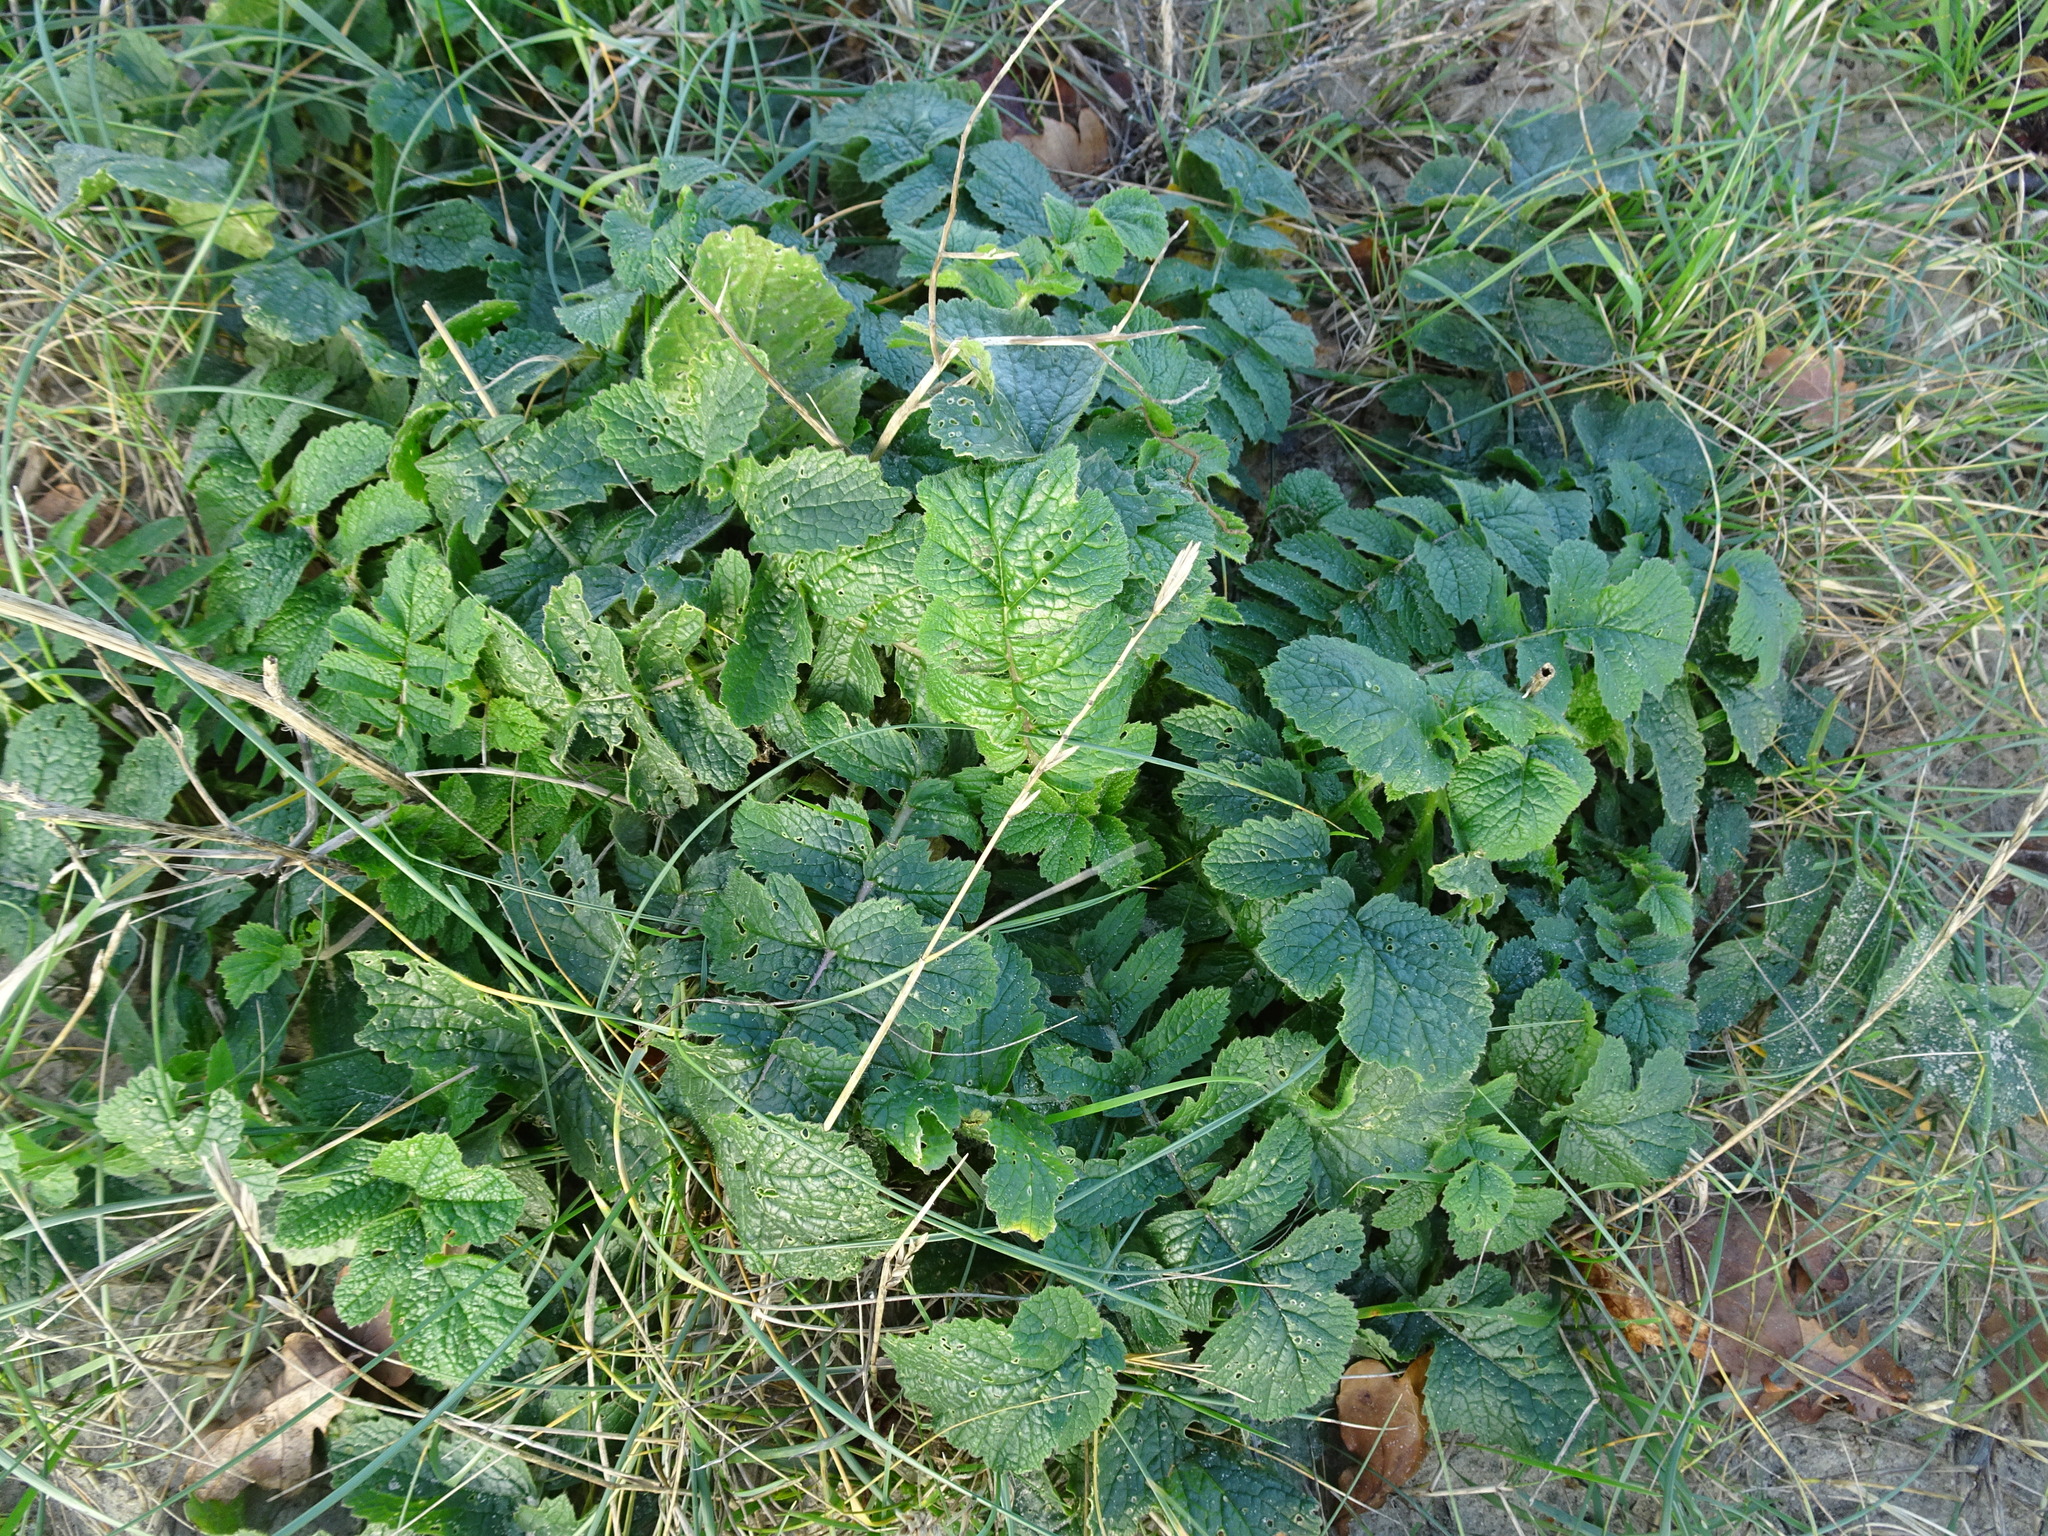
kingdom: Plantae
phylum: Tracheophyta
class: Magnoliopsida
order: Brassicales
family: Brassicaceae
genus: Raphanus
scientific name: Raphanus raphanistrum
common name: Wild radish
